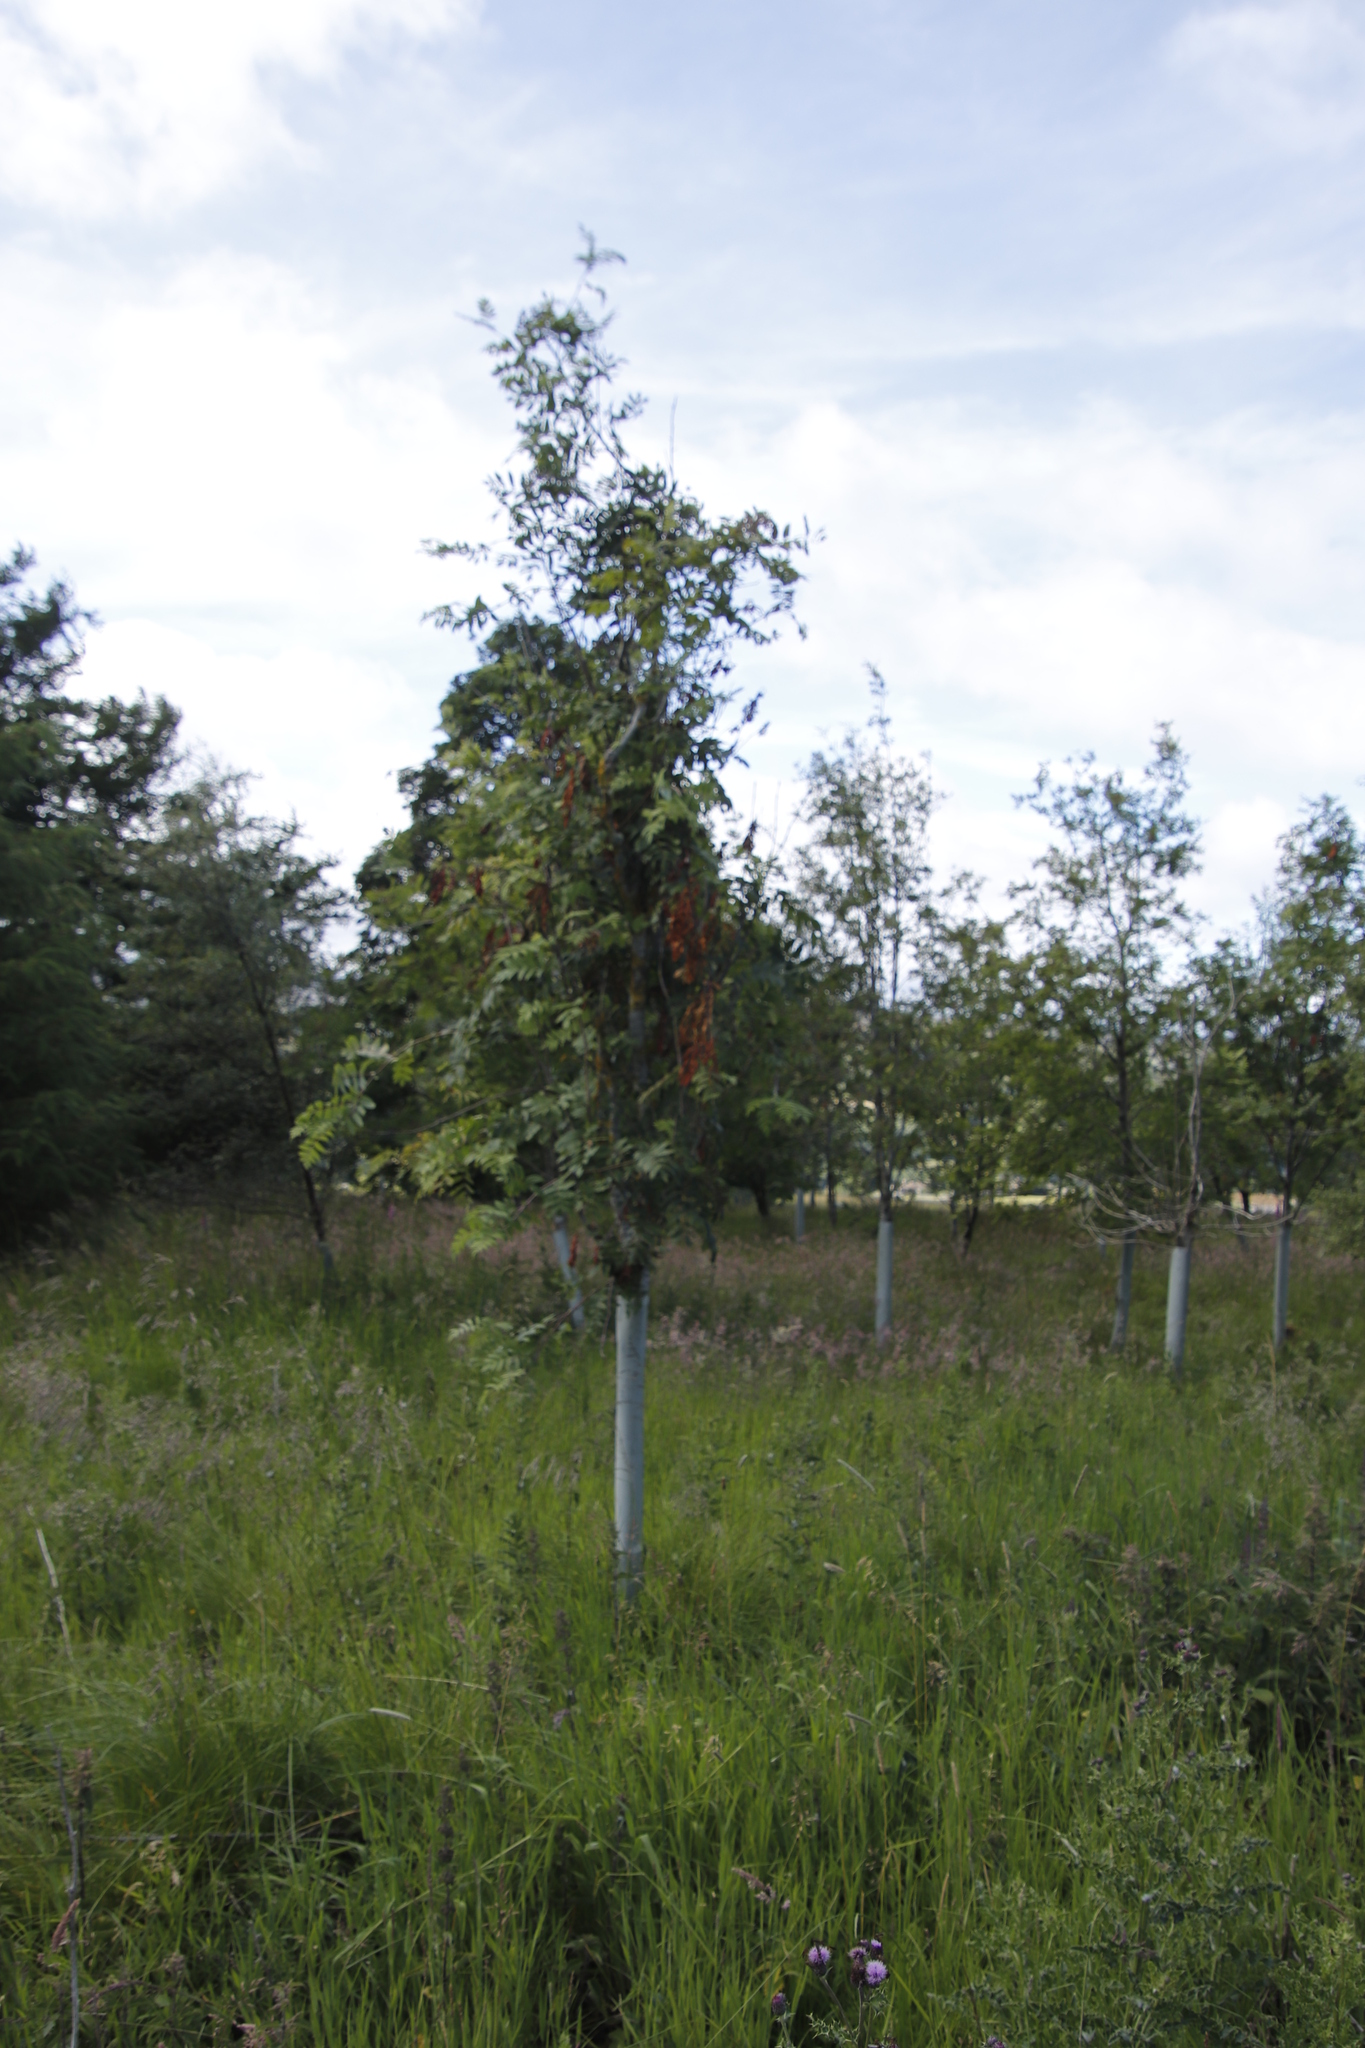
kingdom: Plantae
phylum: Tracheophyta
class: Magnoliopsida
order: Rosales
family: Rosaceae
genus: Sorbus
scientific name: Sorbus aucuparia
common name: Rowan
